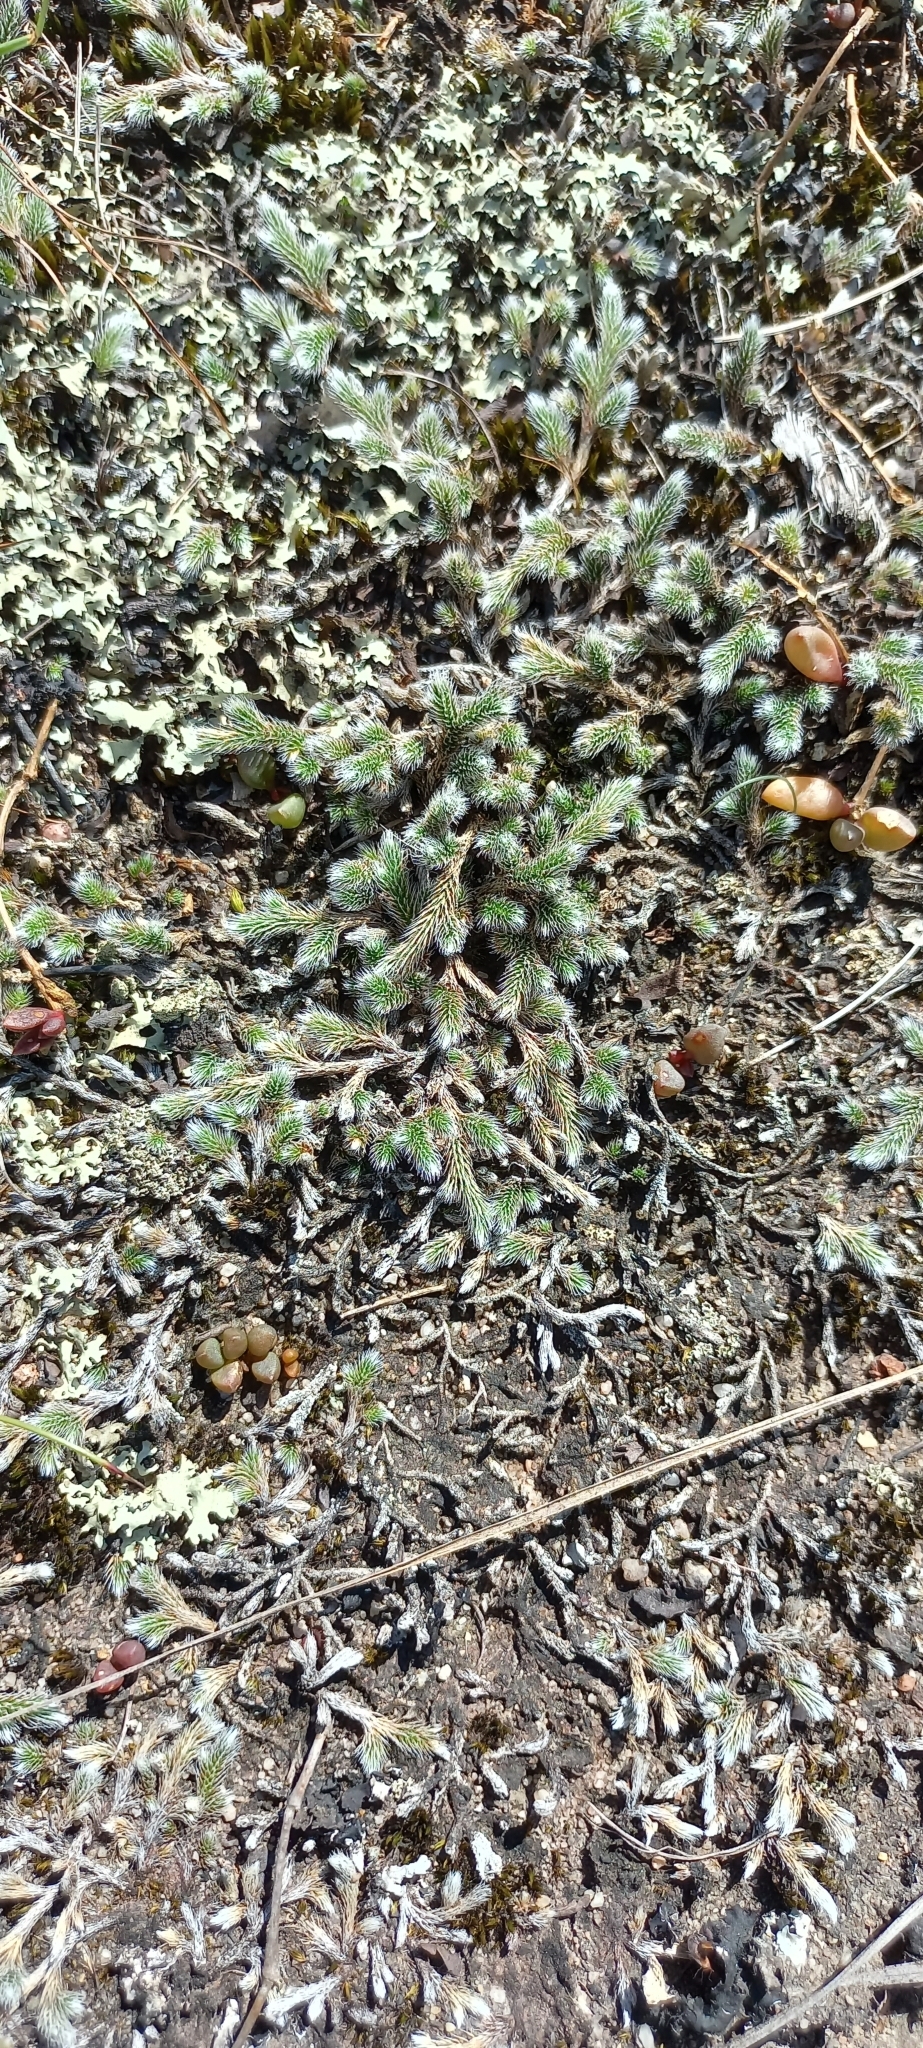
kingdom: Plantae
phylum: Tracheophyta
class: Lycopodiopsida
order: Selaginellales
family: Selaginellaceae
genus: Selaginella
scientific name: Selaginella dregei
